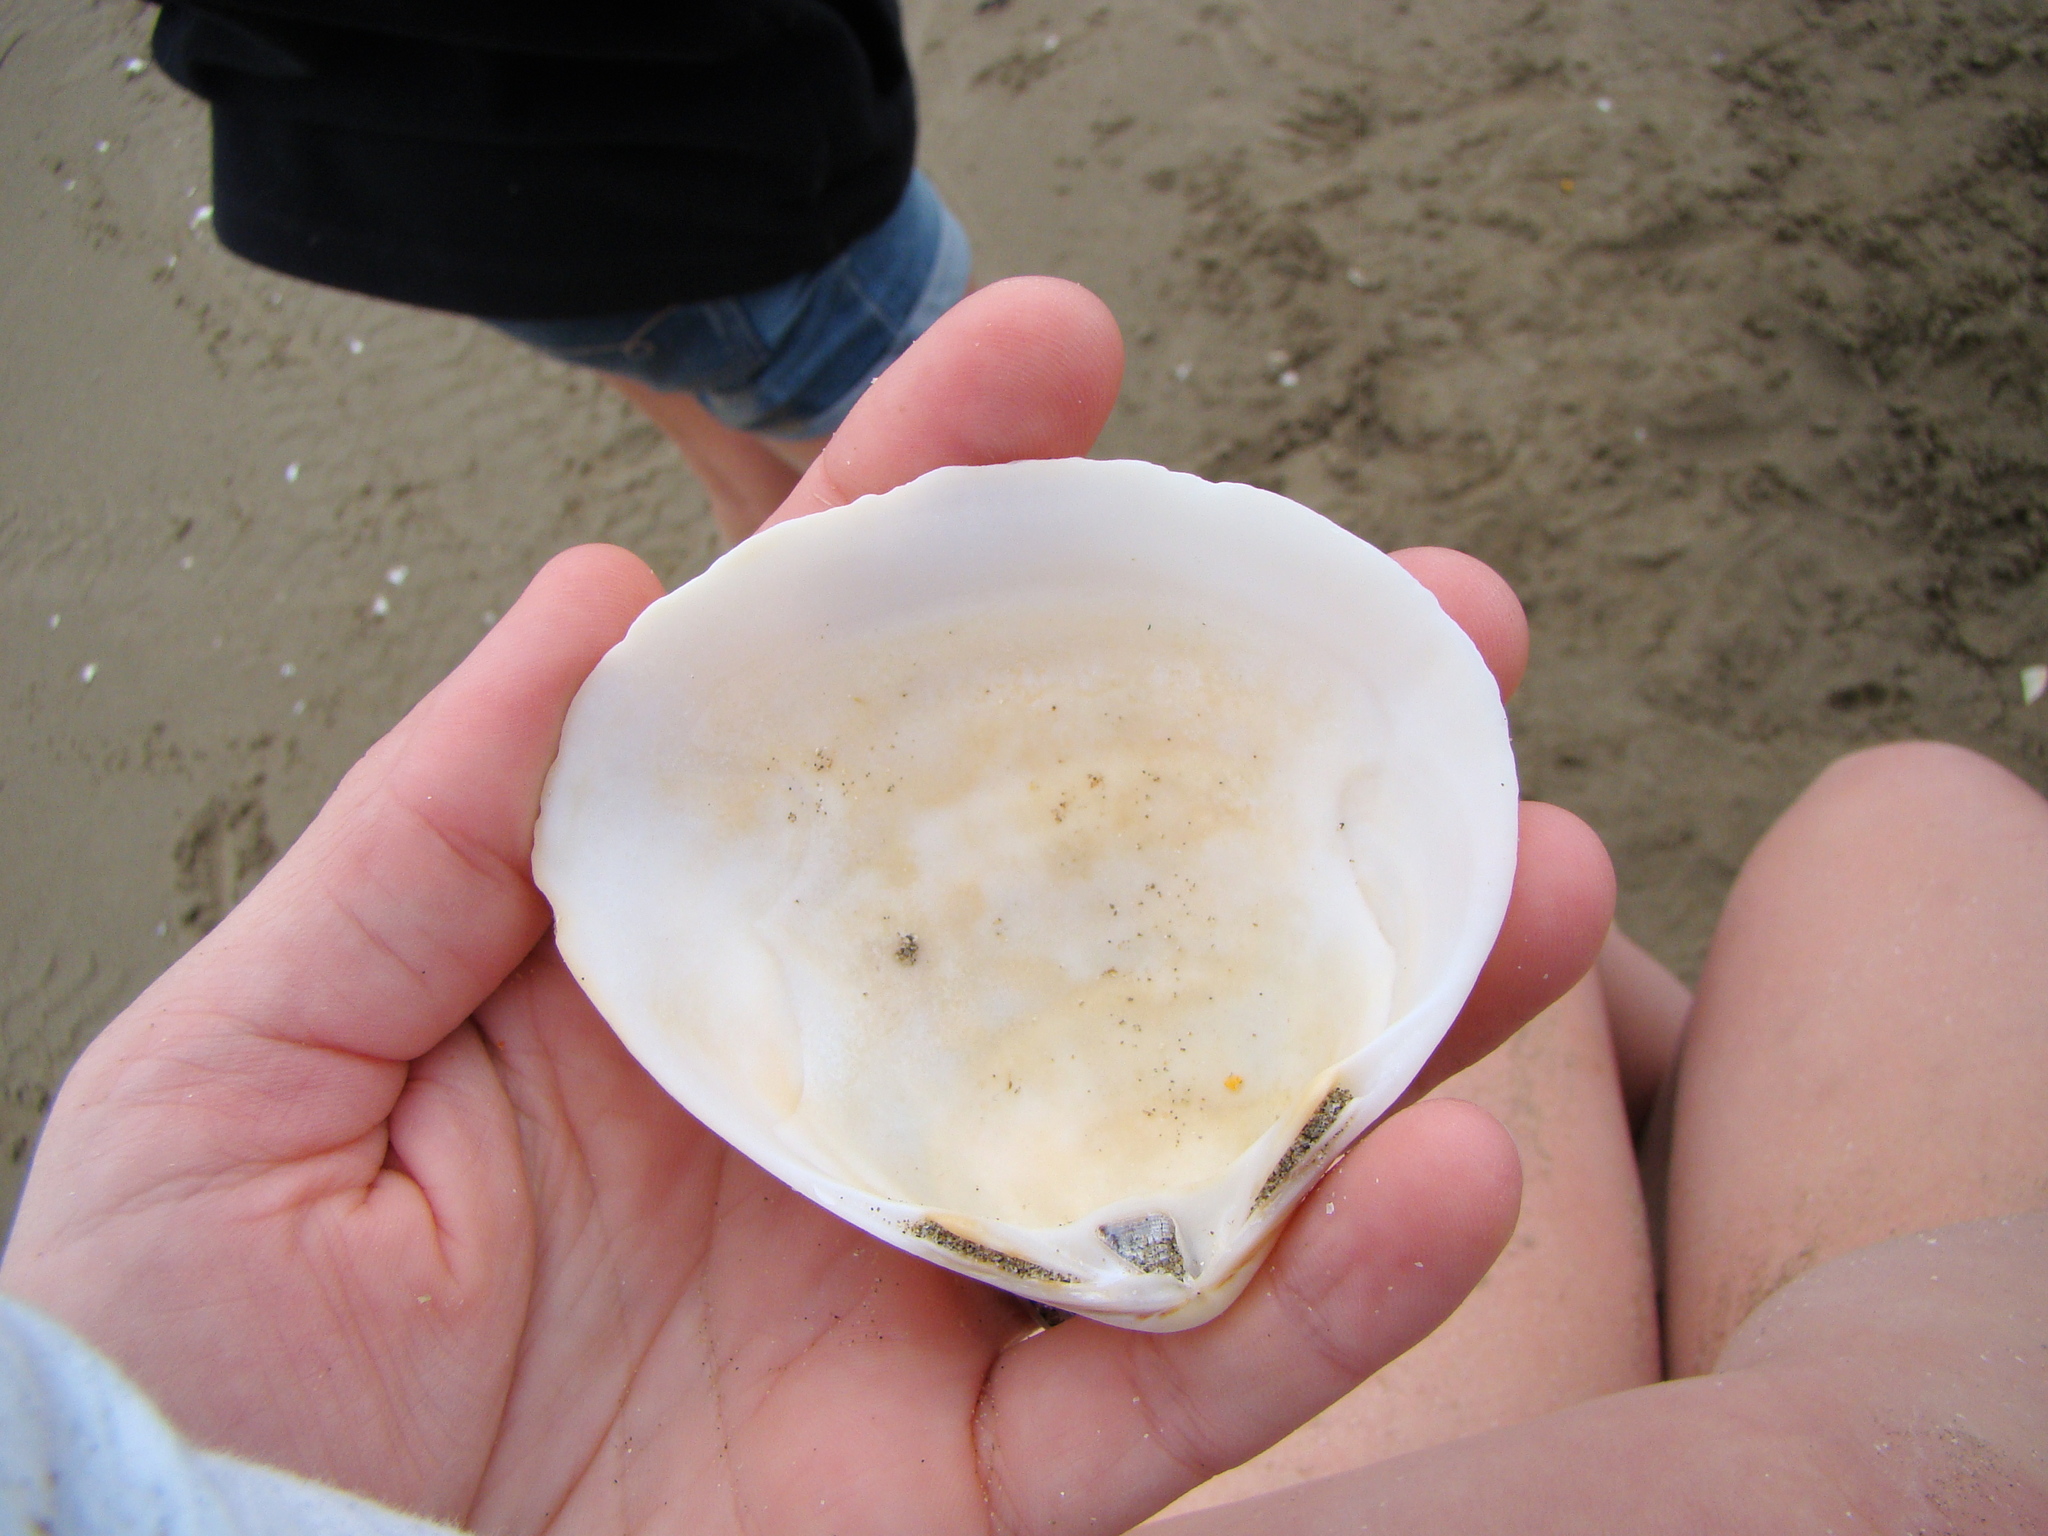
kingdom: Animalia
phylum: Mollusca
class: Bivalvia
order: Venerida
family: Mactridae
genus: Spisula
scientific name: Spisula discors
